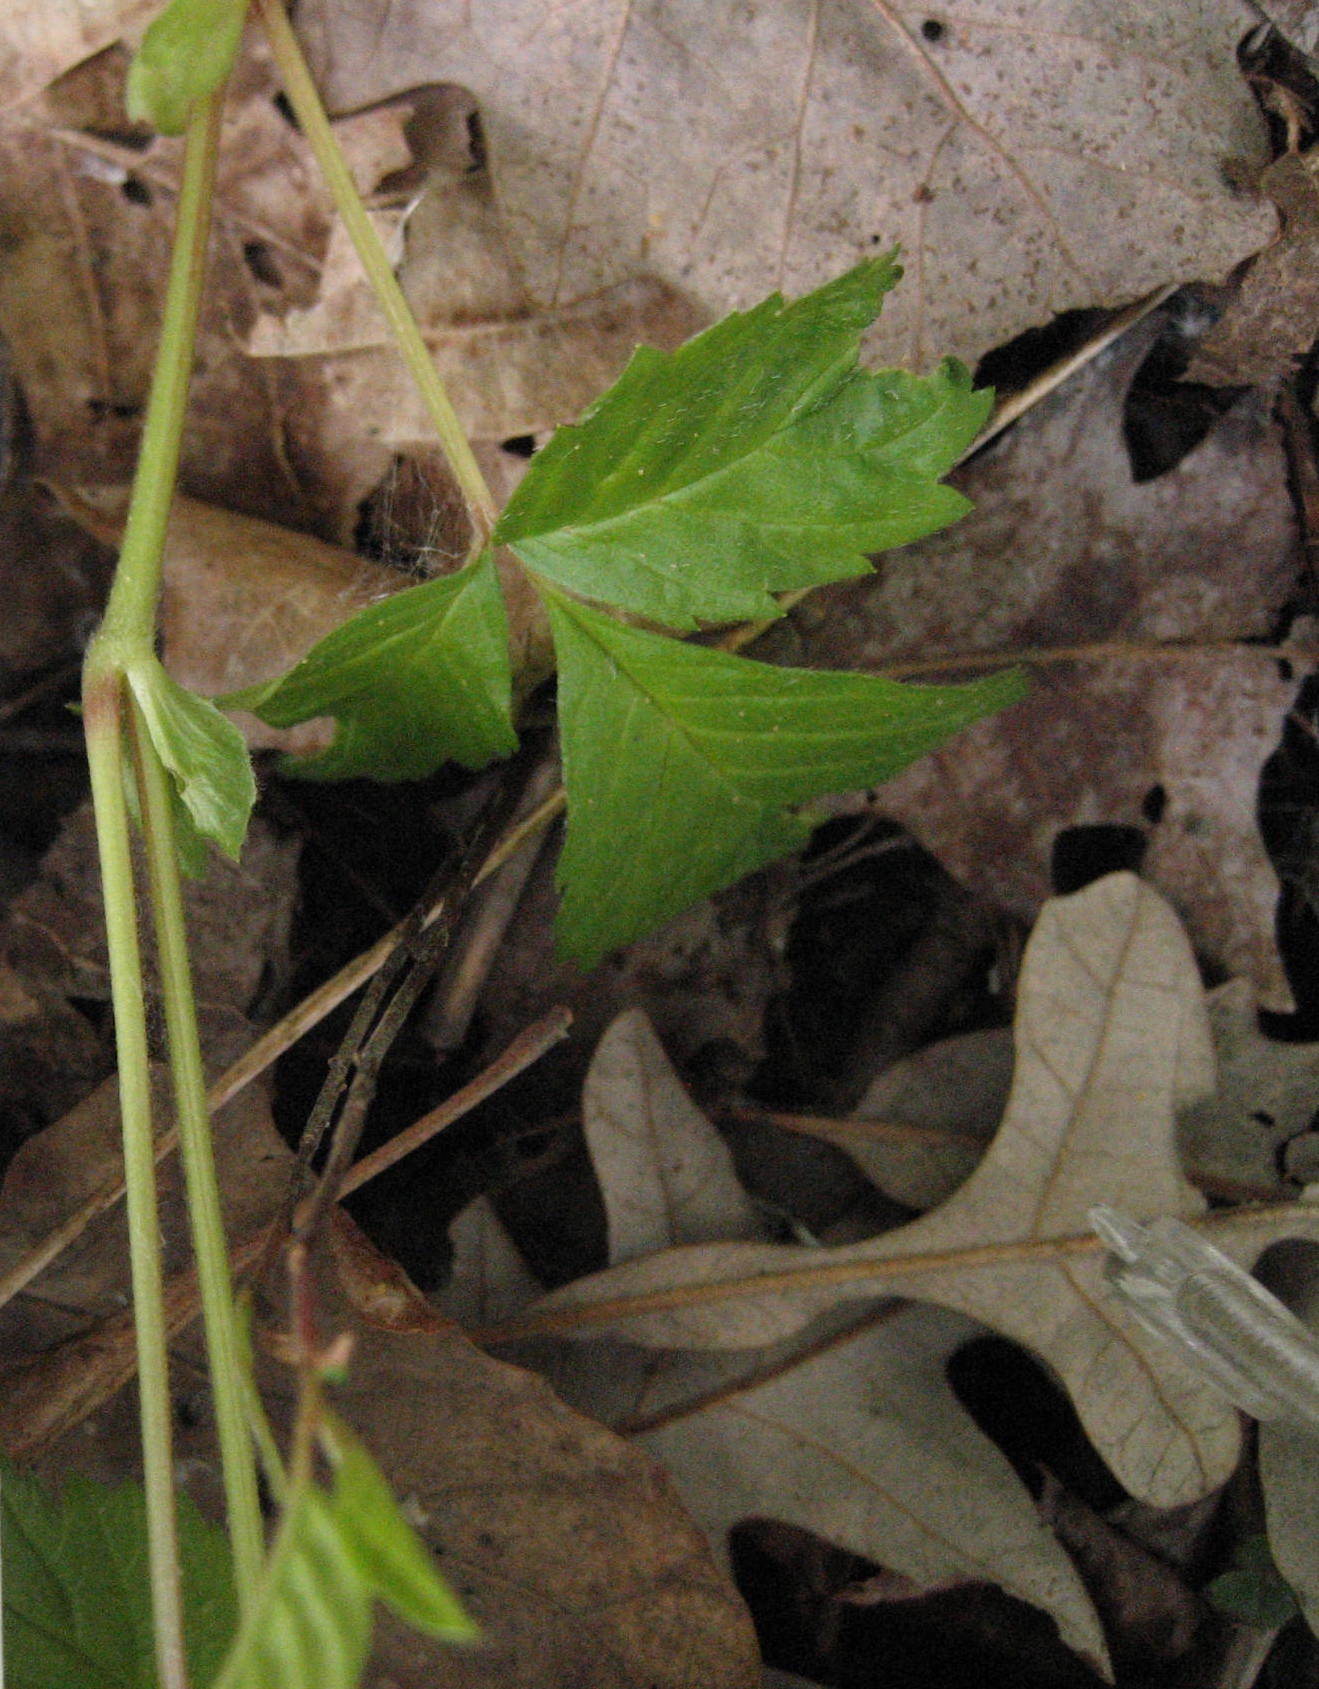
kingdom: Plantae
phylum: Tracheophyta
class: Magnoliopsida
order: Rosales
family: Rosaceae
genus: Rubus
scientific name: Rubus pubescens
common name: Dwarf raspberry
